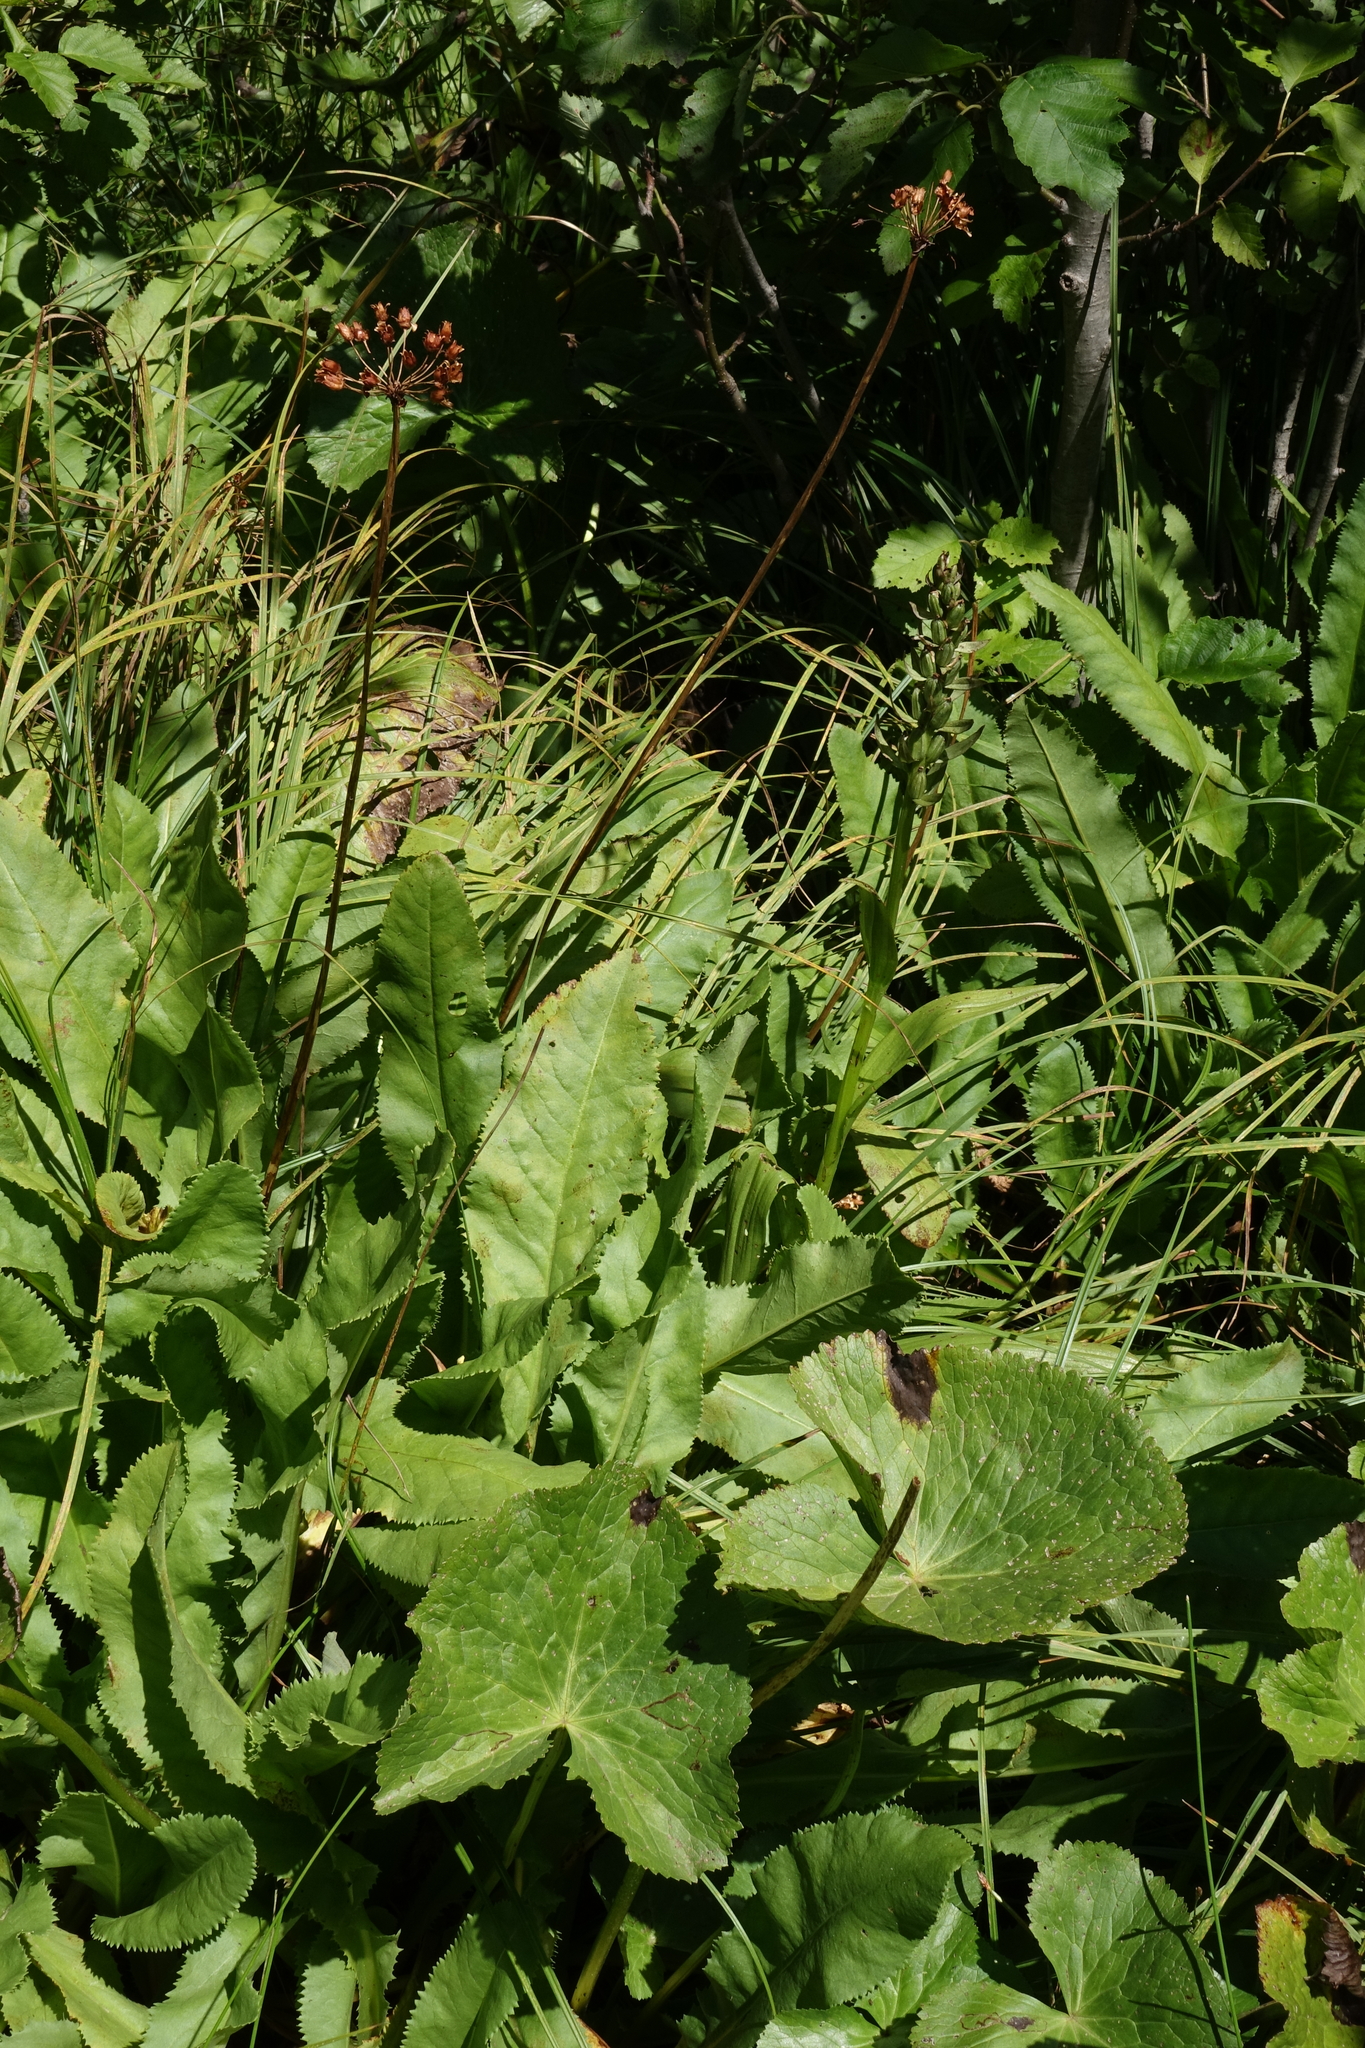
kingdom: Plantae
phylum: Tracheophyta
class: Magnoliopsida
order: Ranunculales
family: Ranunculaceae
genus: Caltha
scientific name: Caltha palustris
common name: Marsh marigold
